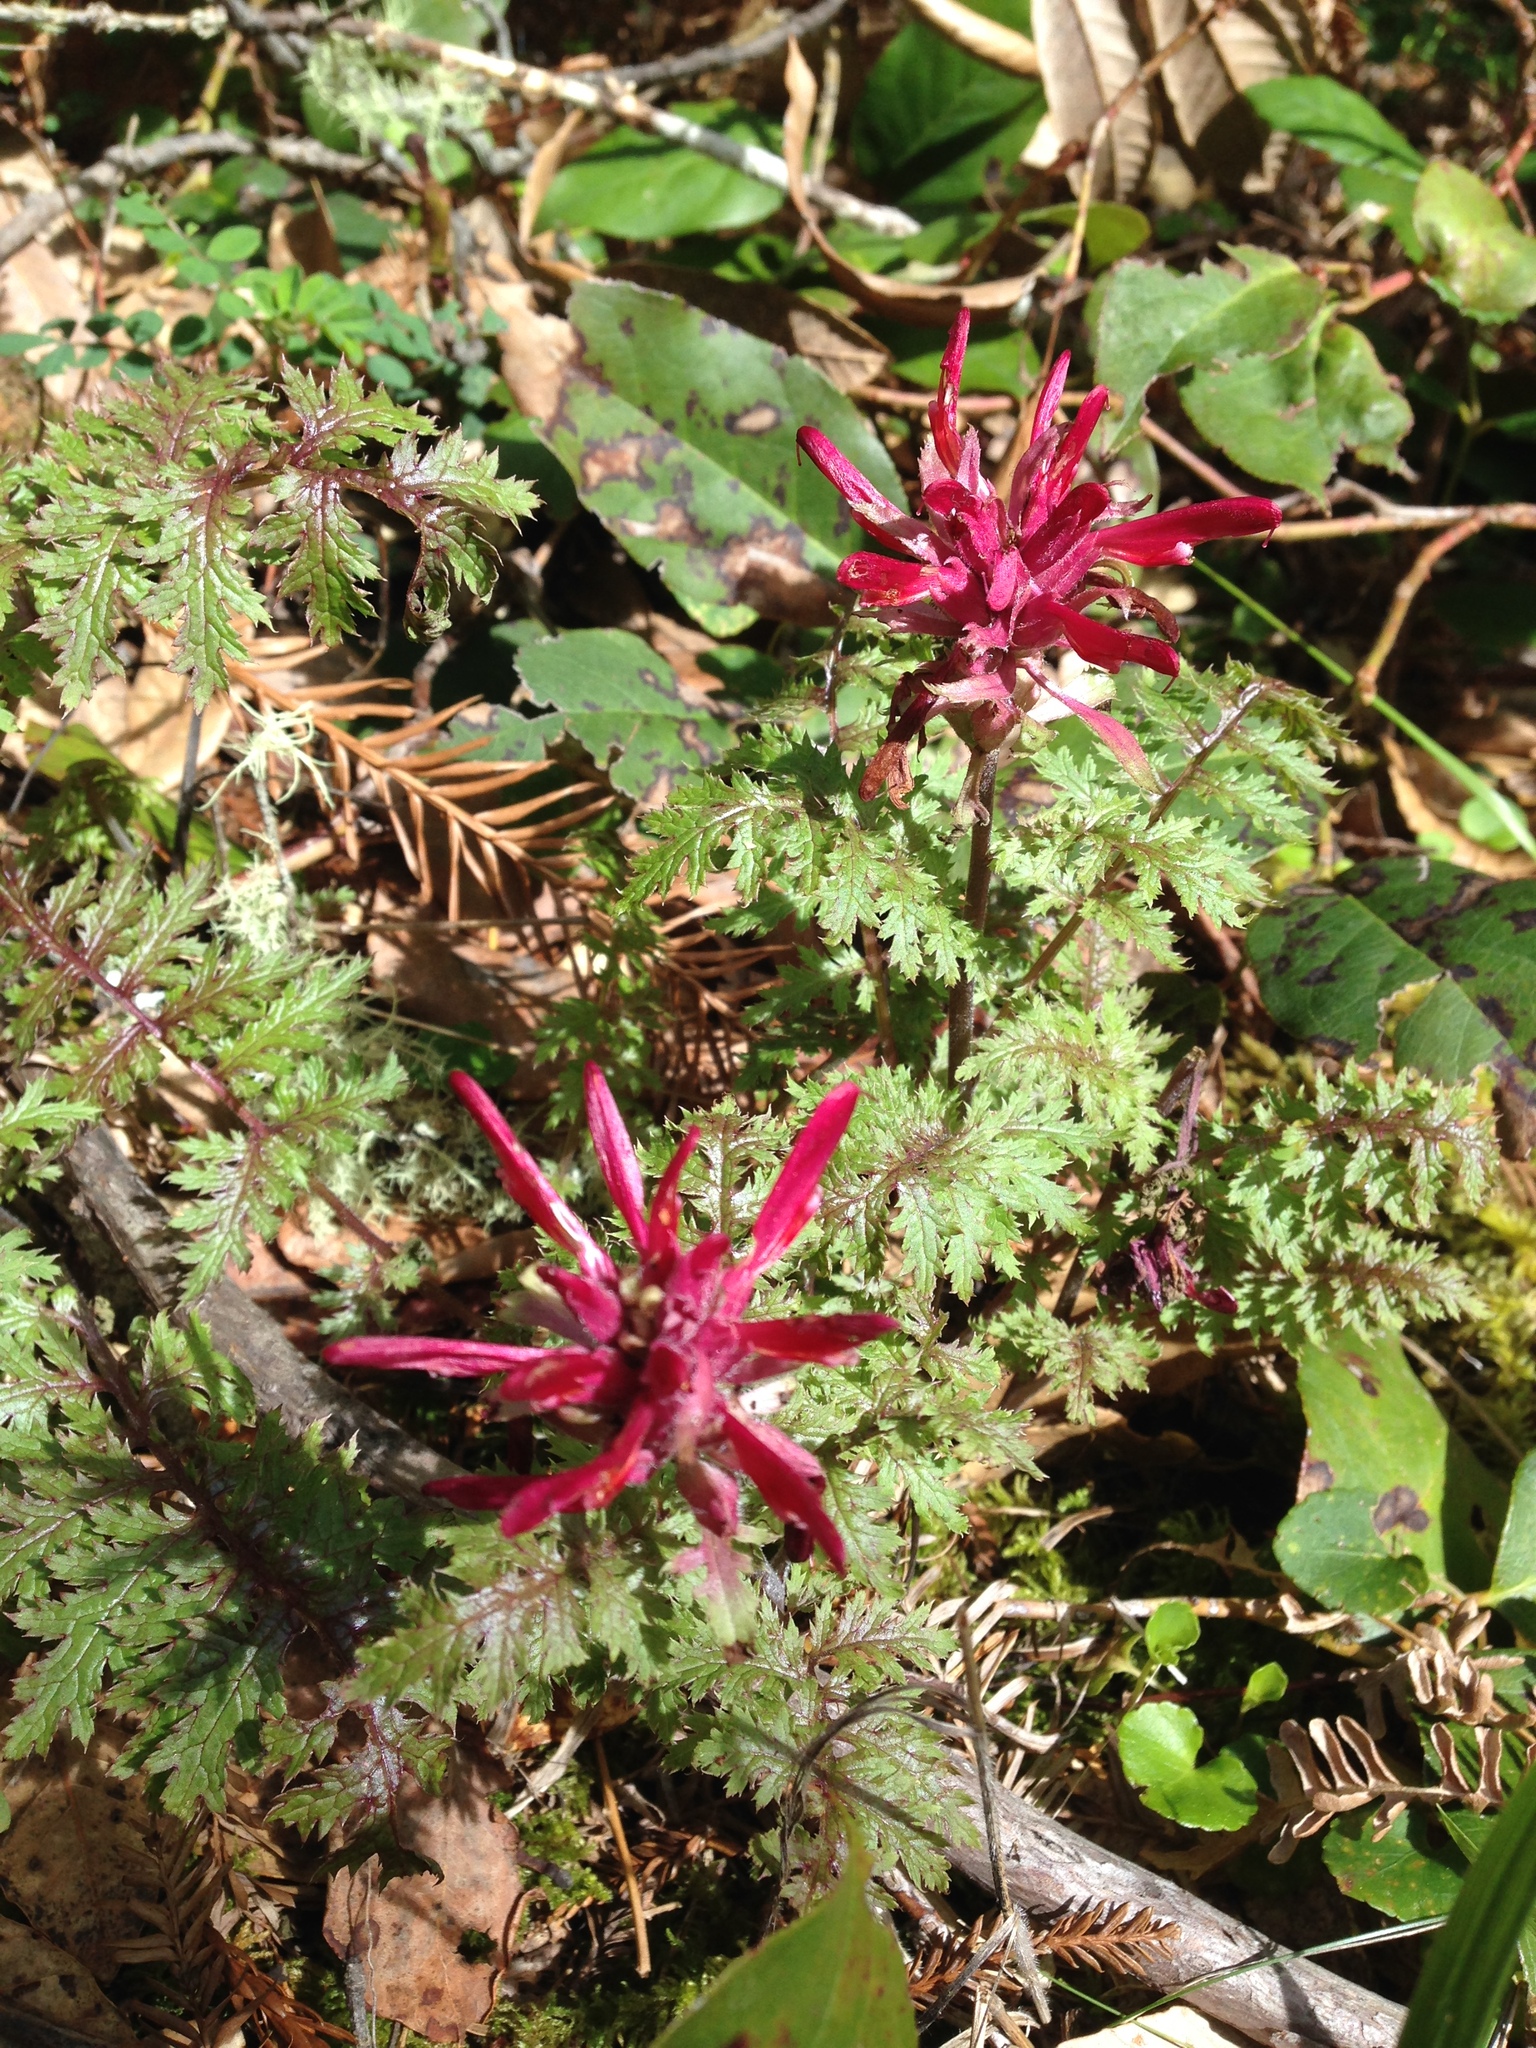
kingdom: Plantae
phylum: Tracheophyta
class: Magnoliopsida
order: Lamiales
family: Orobanchaceae
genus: Pedicularis
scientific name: Pedicularis densiflora
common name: Indian warrior
